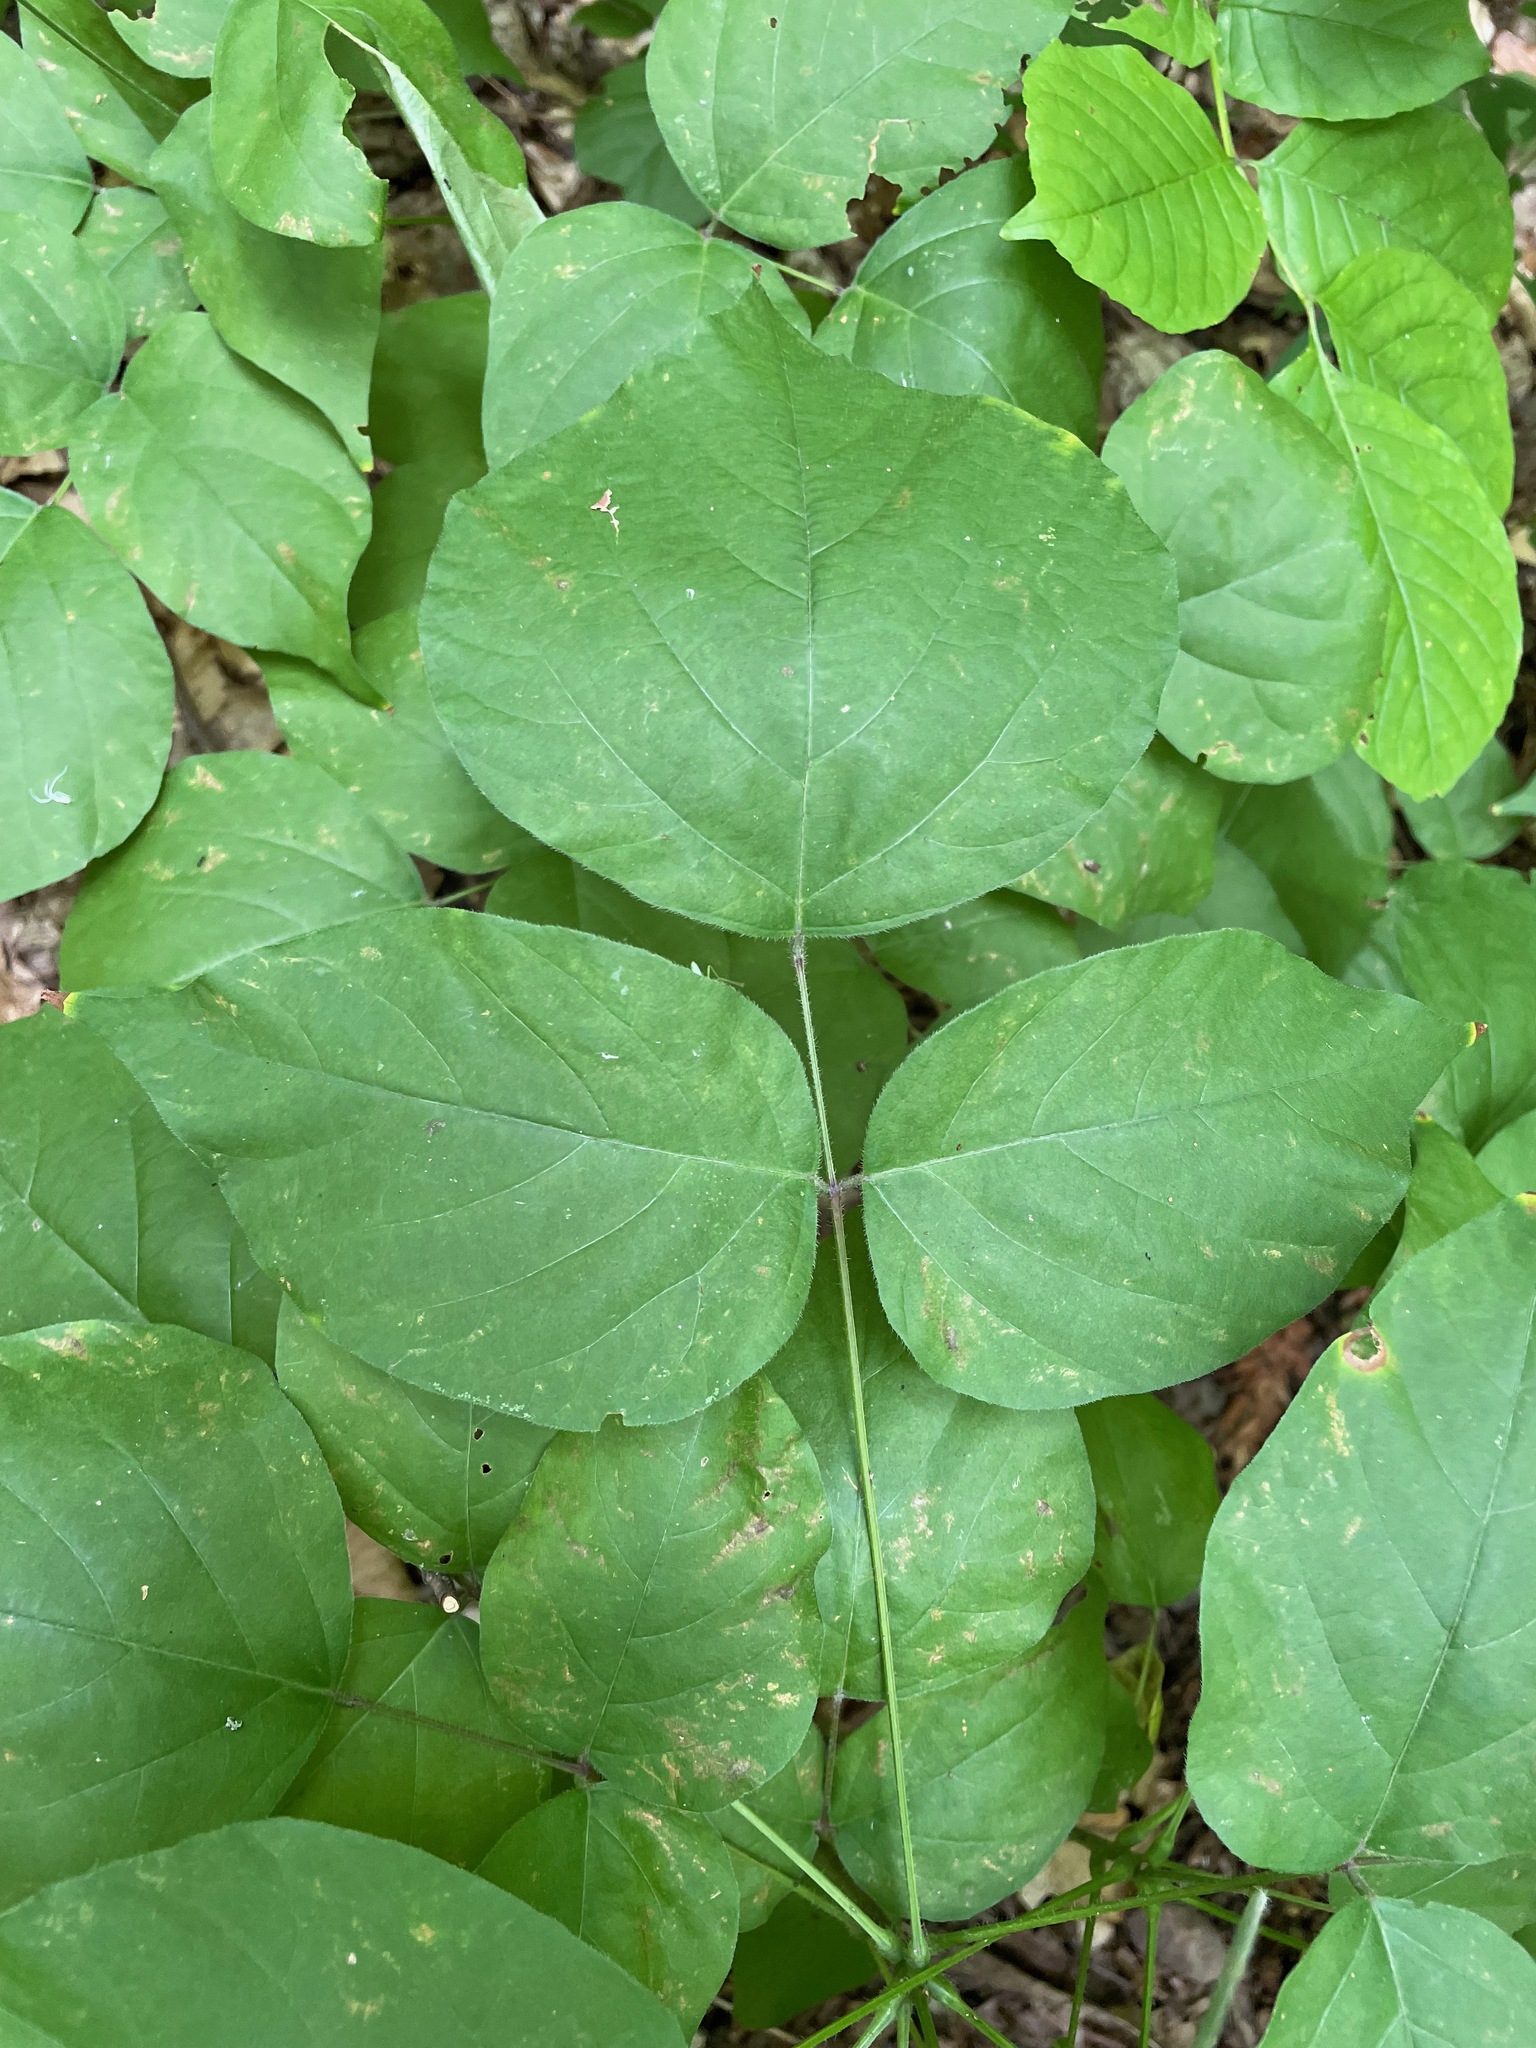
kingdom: Plantae
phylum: Tracheophyta
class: Magnoliopsida
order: Fabales
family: Fabaceae
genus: Hylodesmum
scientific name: Hylodesmum glutinosum
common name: Clustered-leaved tick-trefoil
